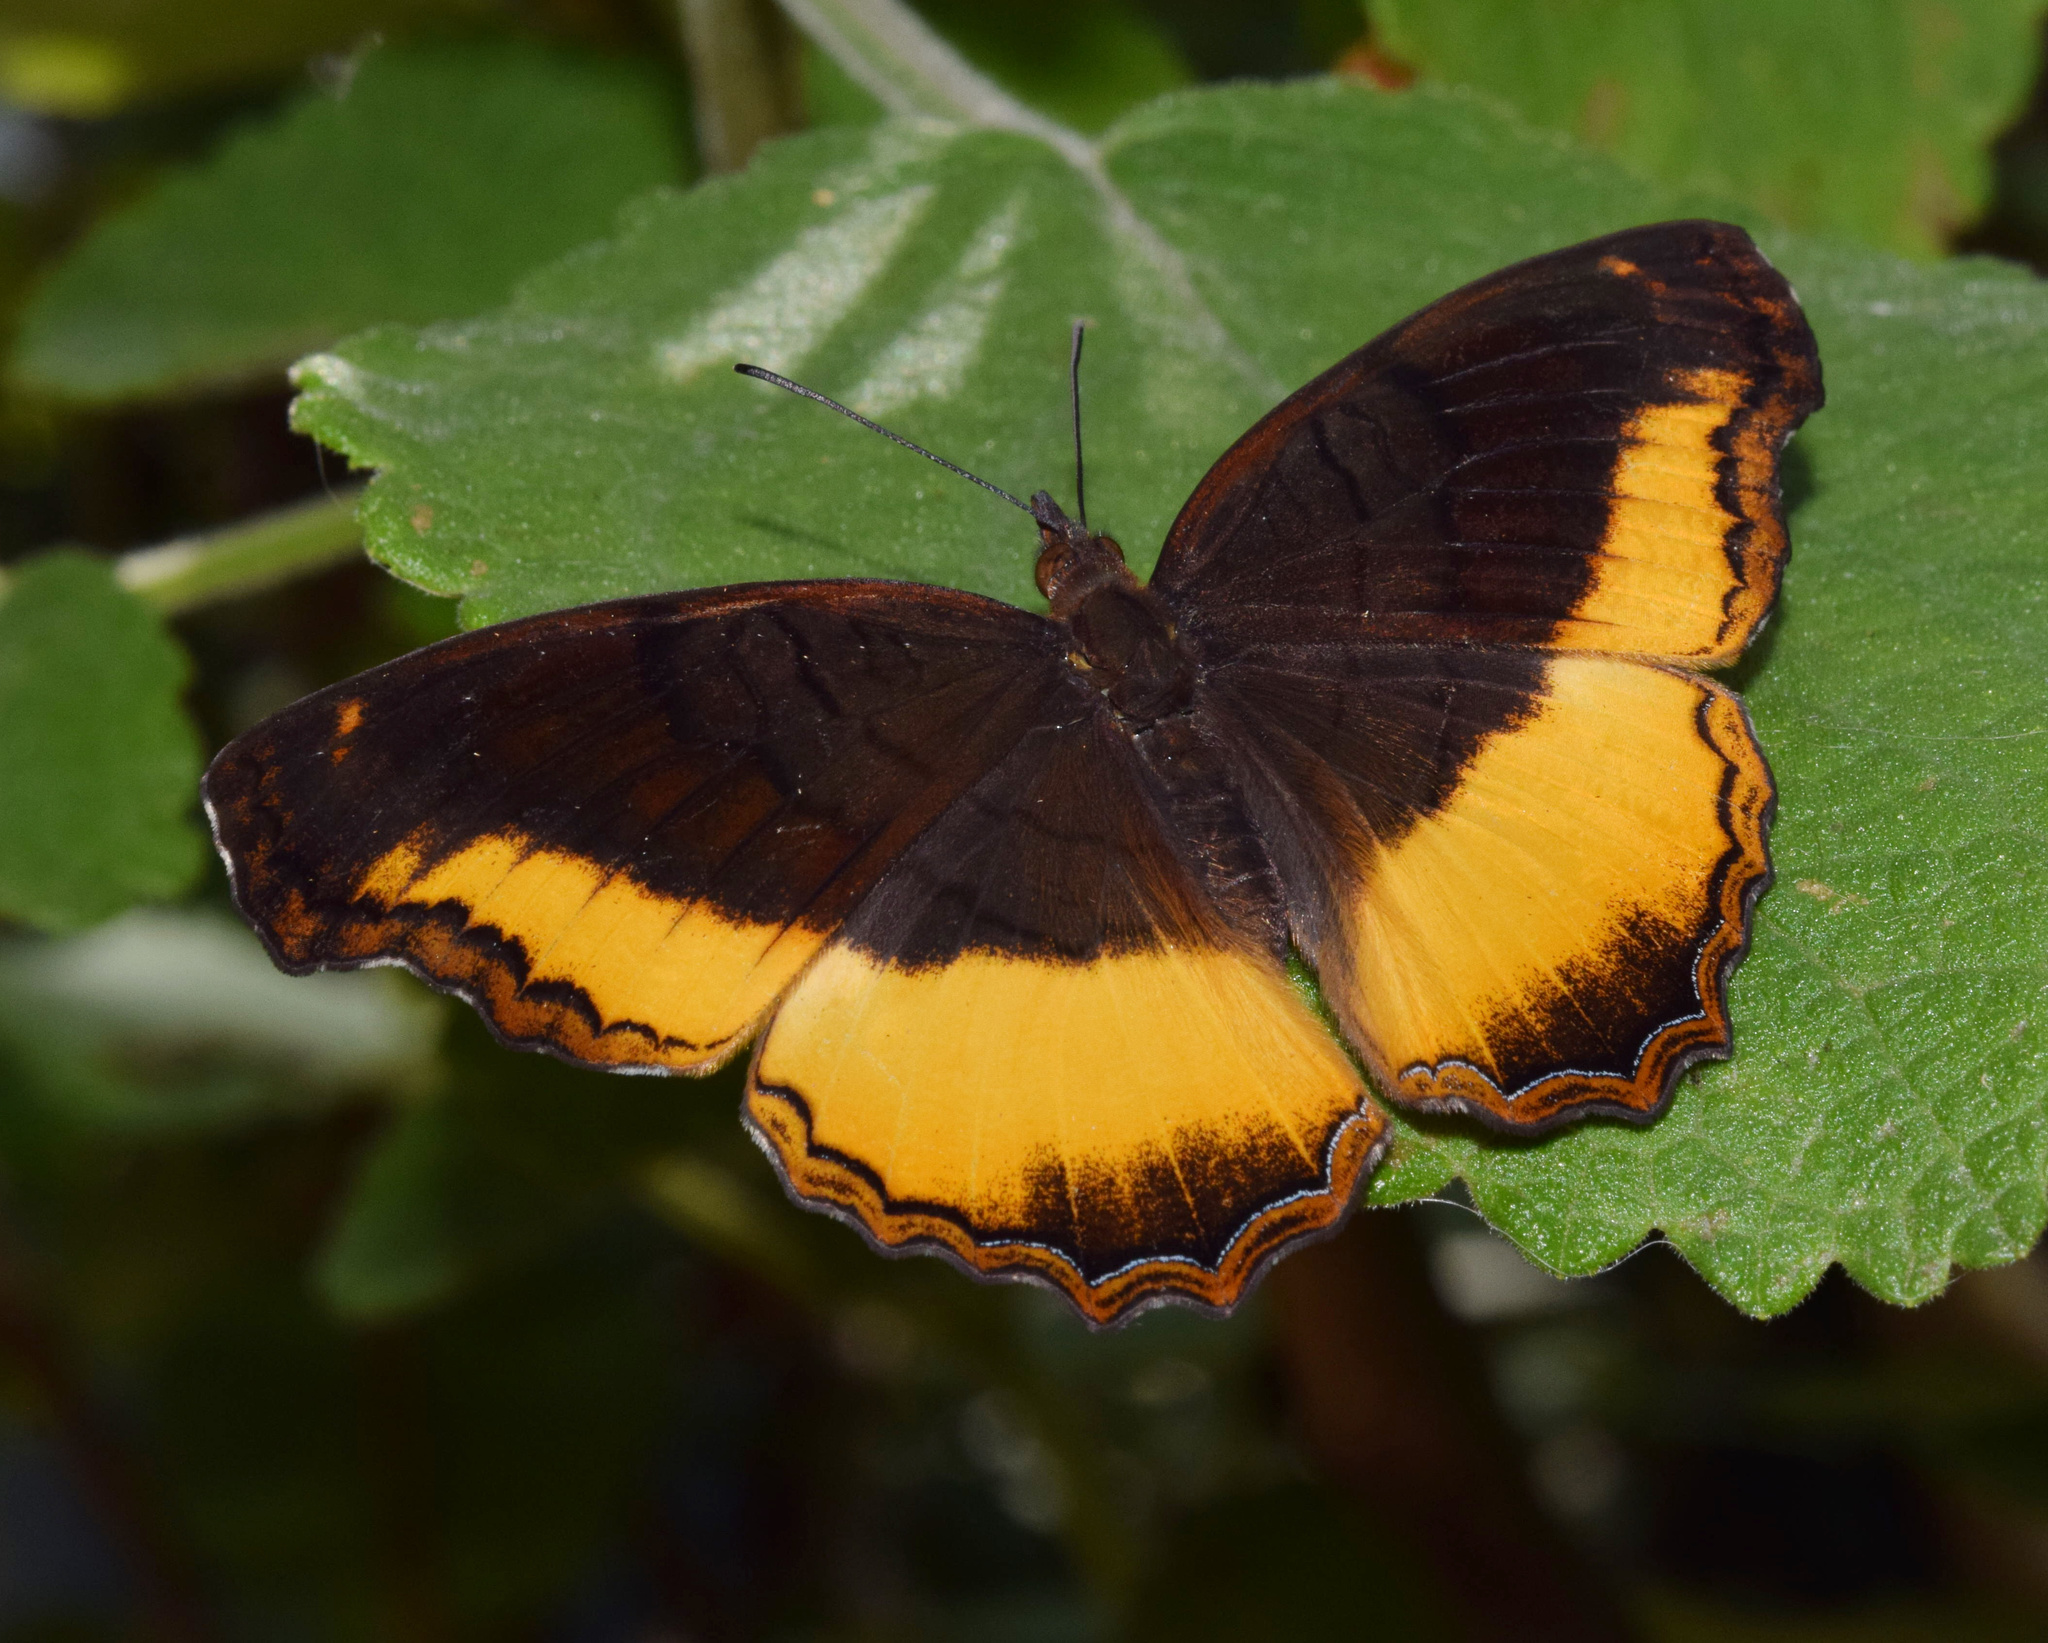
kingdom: Animalia
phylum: Arthropoda
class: Insecta
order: Lepidoptera
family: Nymphalidae
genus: Eurytela
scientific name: Eurytela dryope
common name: Golden piper
